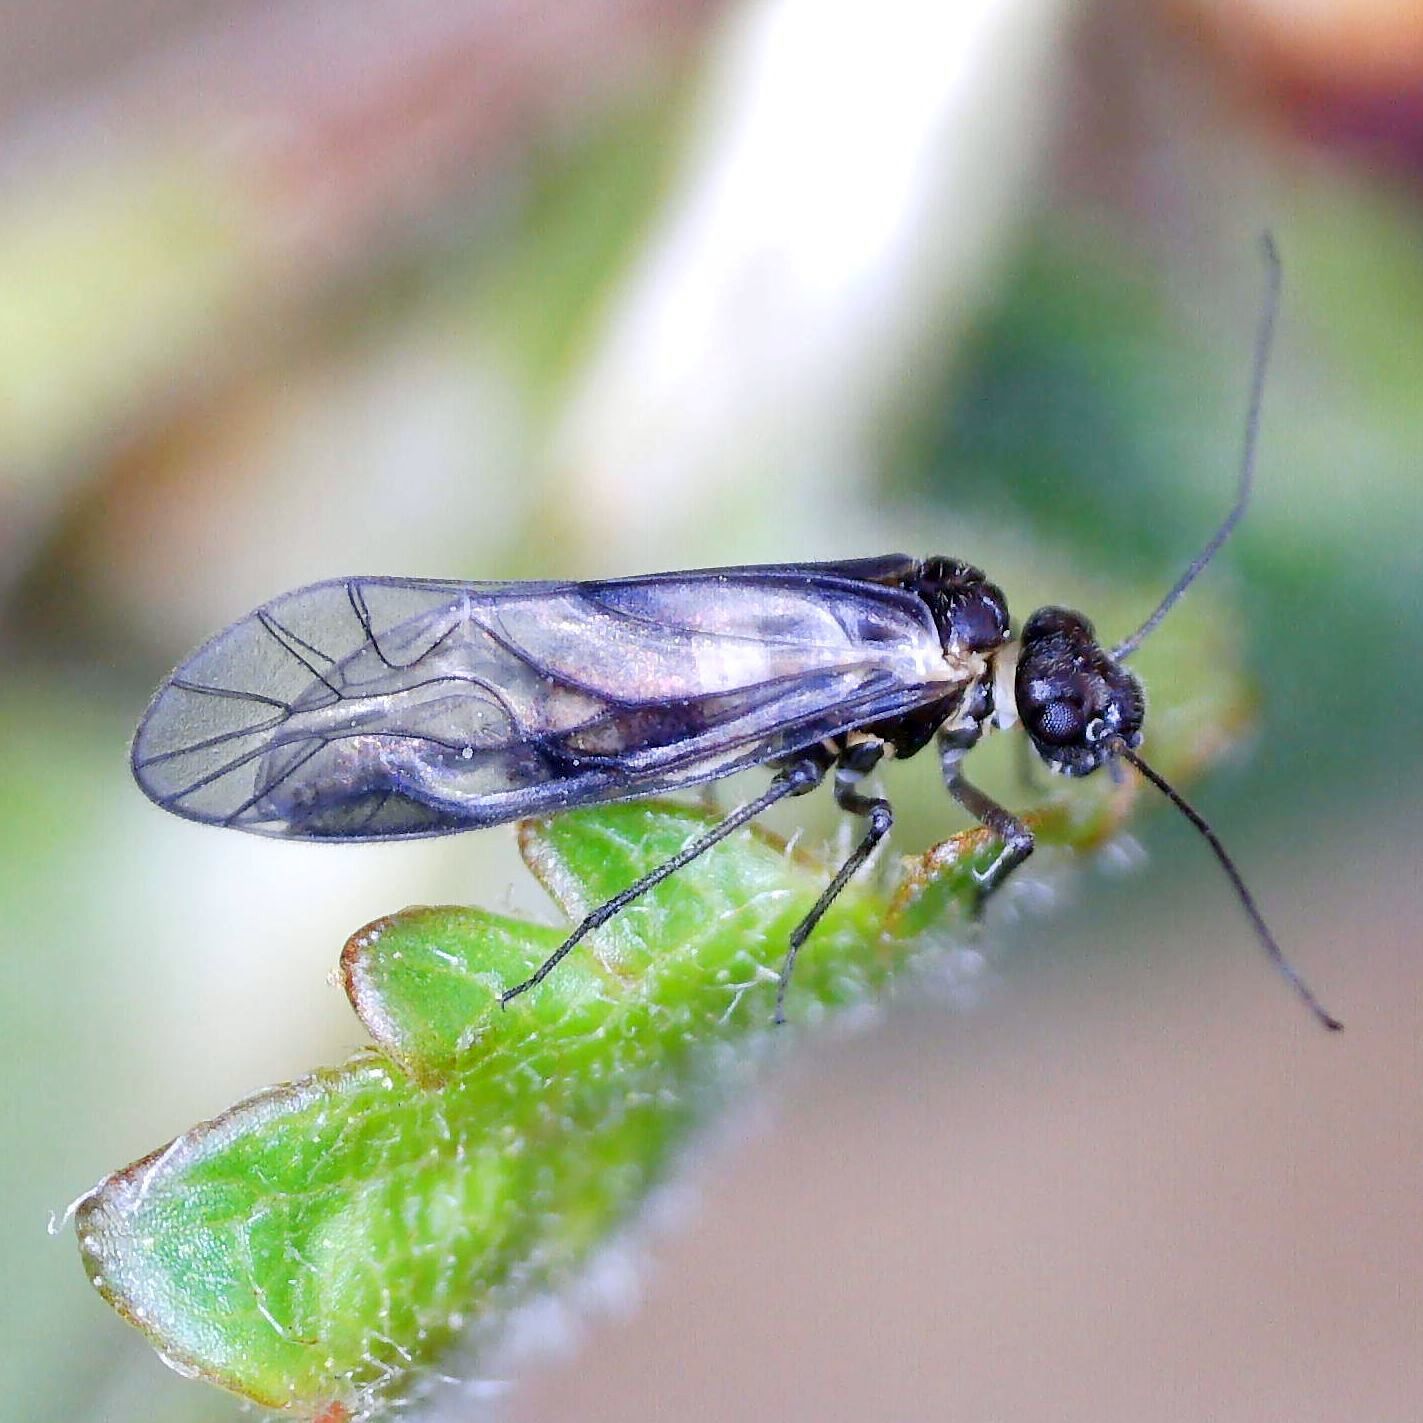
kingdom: Animalia
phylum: Arthropoda
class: Insecta
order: Psocodea
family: Elipsocidae
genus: Elipsocus
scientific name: Elipsocus hyalinus
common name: Bark lice
